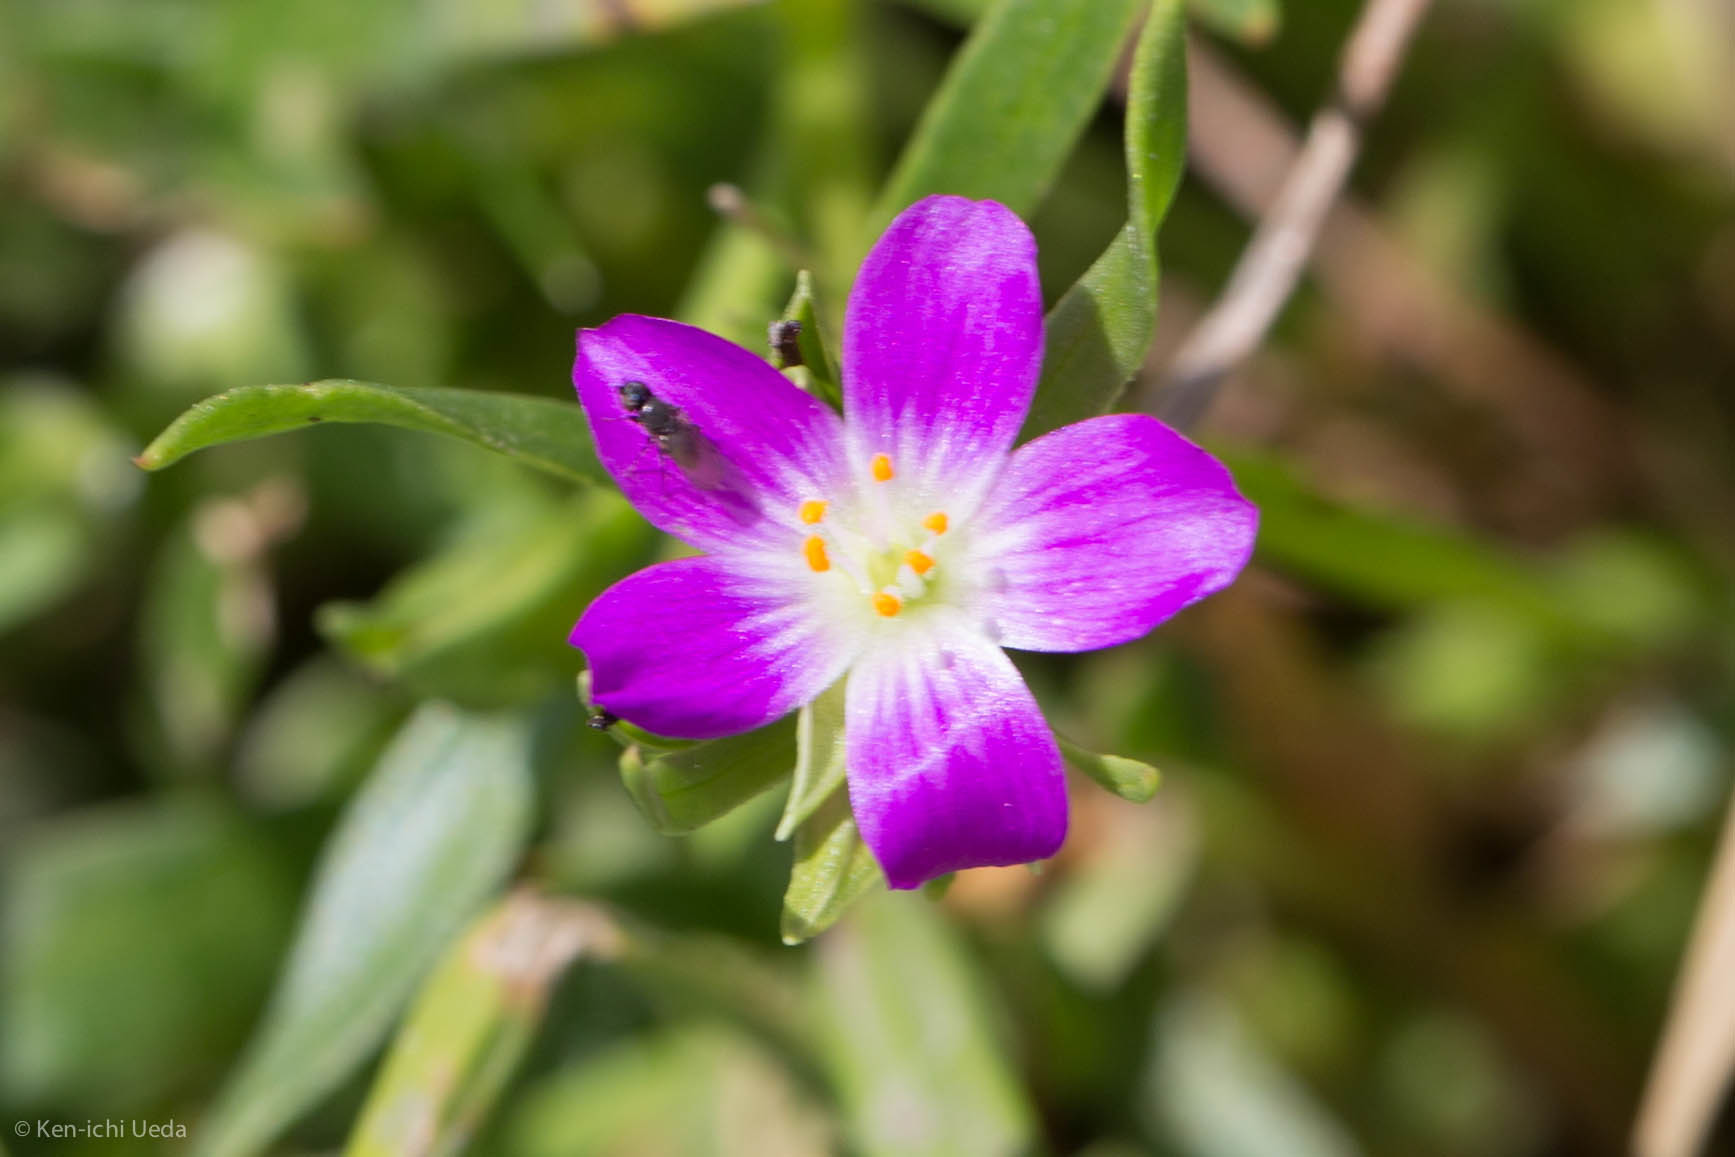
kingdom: Plantae
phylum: Tracheophyta
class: Magnoliopsida
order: Caryophyllales
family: Montiaceae
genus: Calandrinia
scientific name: Calandrinia menziesii
